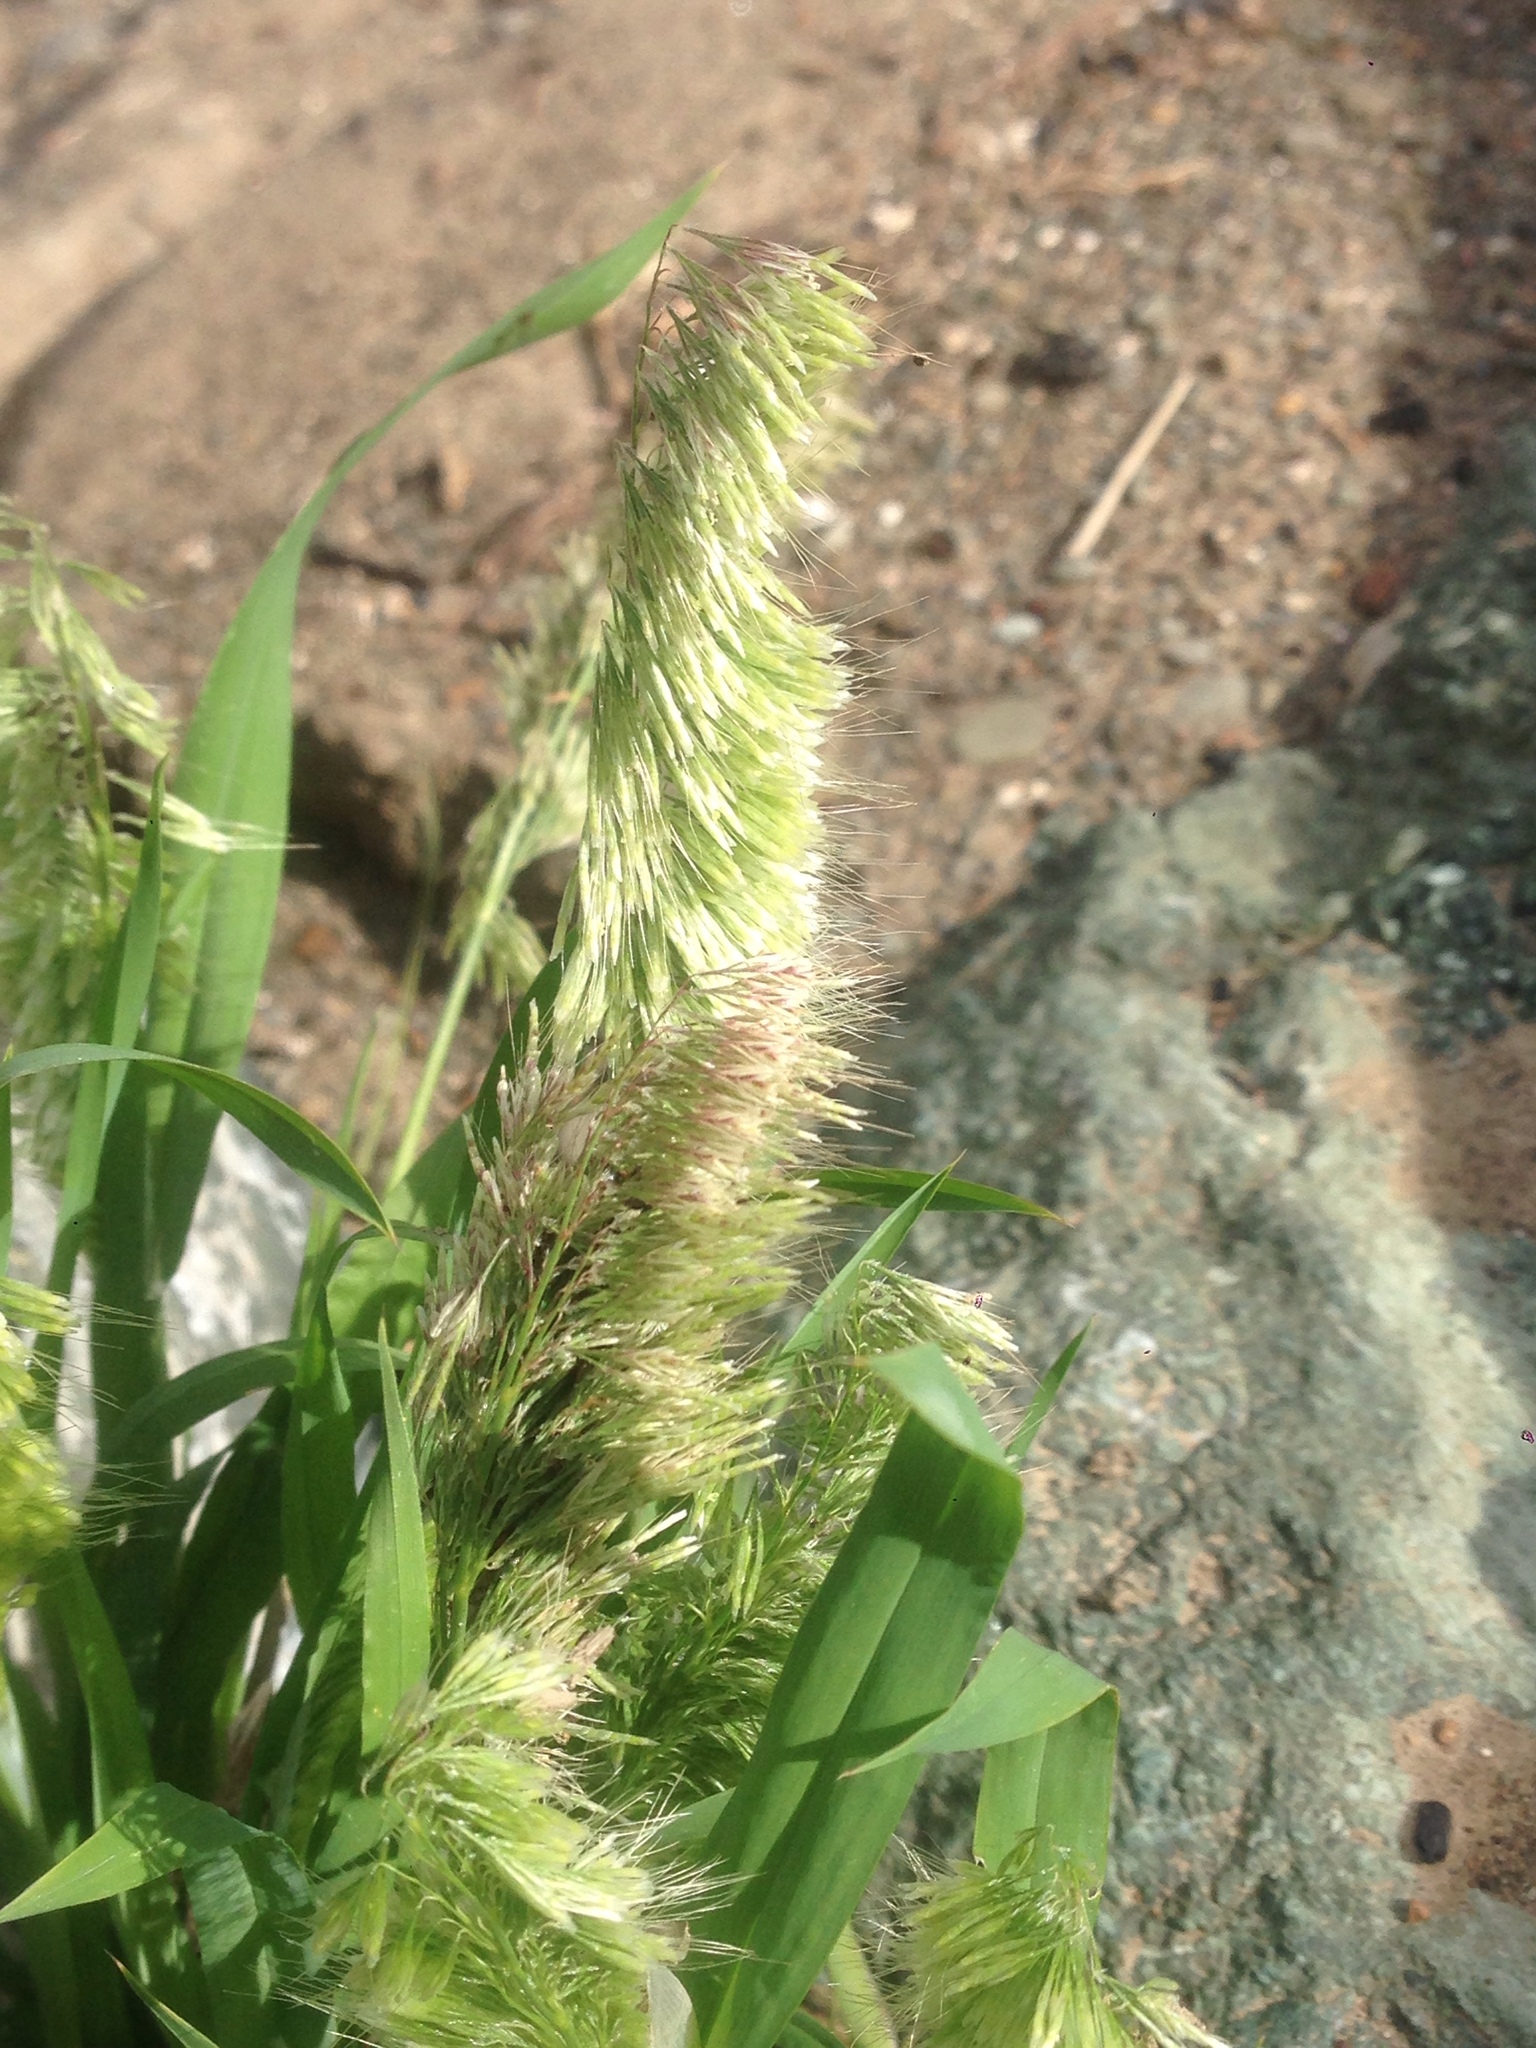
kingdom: Plantae
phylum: Tracheophyta
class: Liliopsida
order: Poales
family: Poaceae
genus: Lamarckia
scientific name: Lamarckia aurea
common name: Golden dog's-tail
